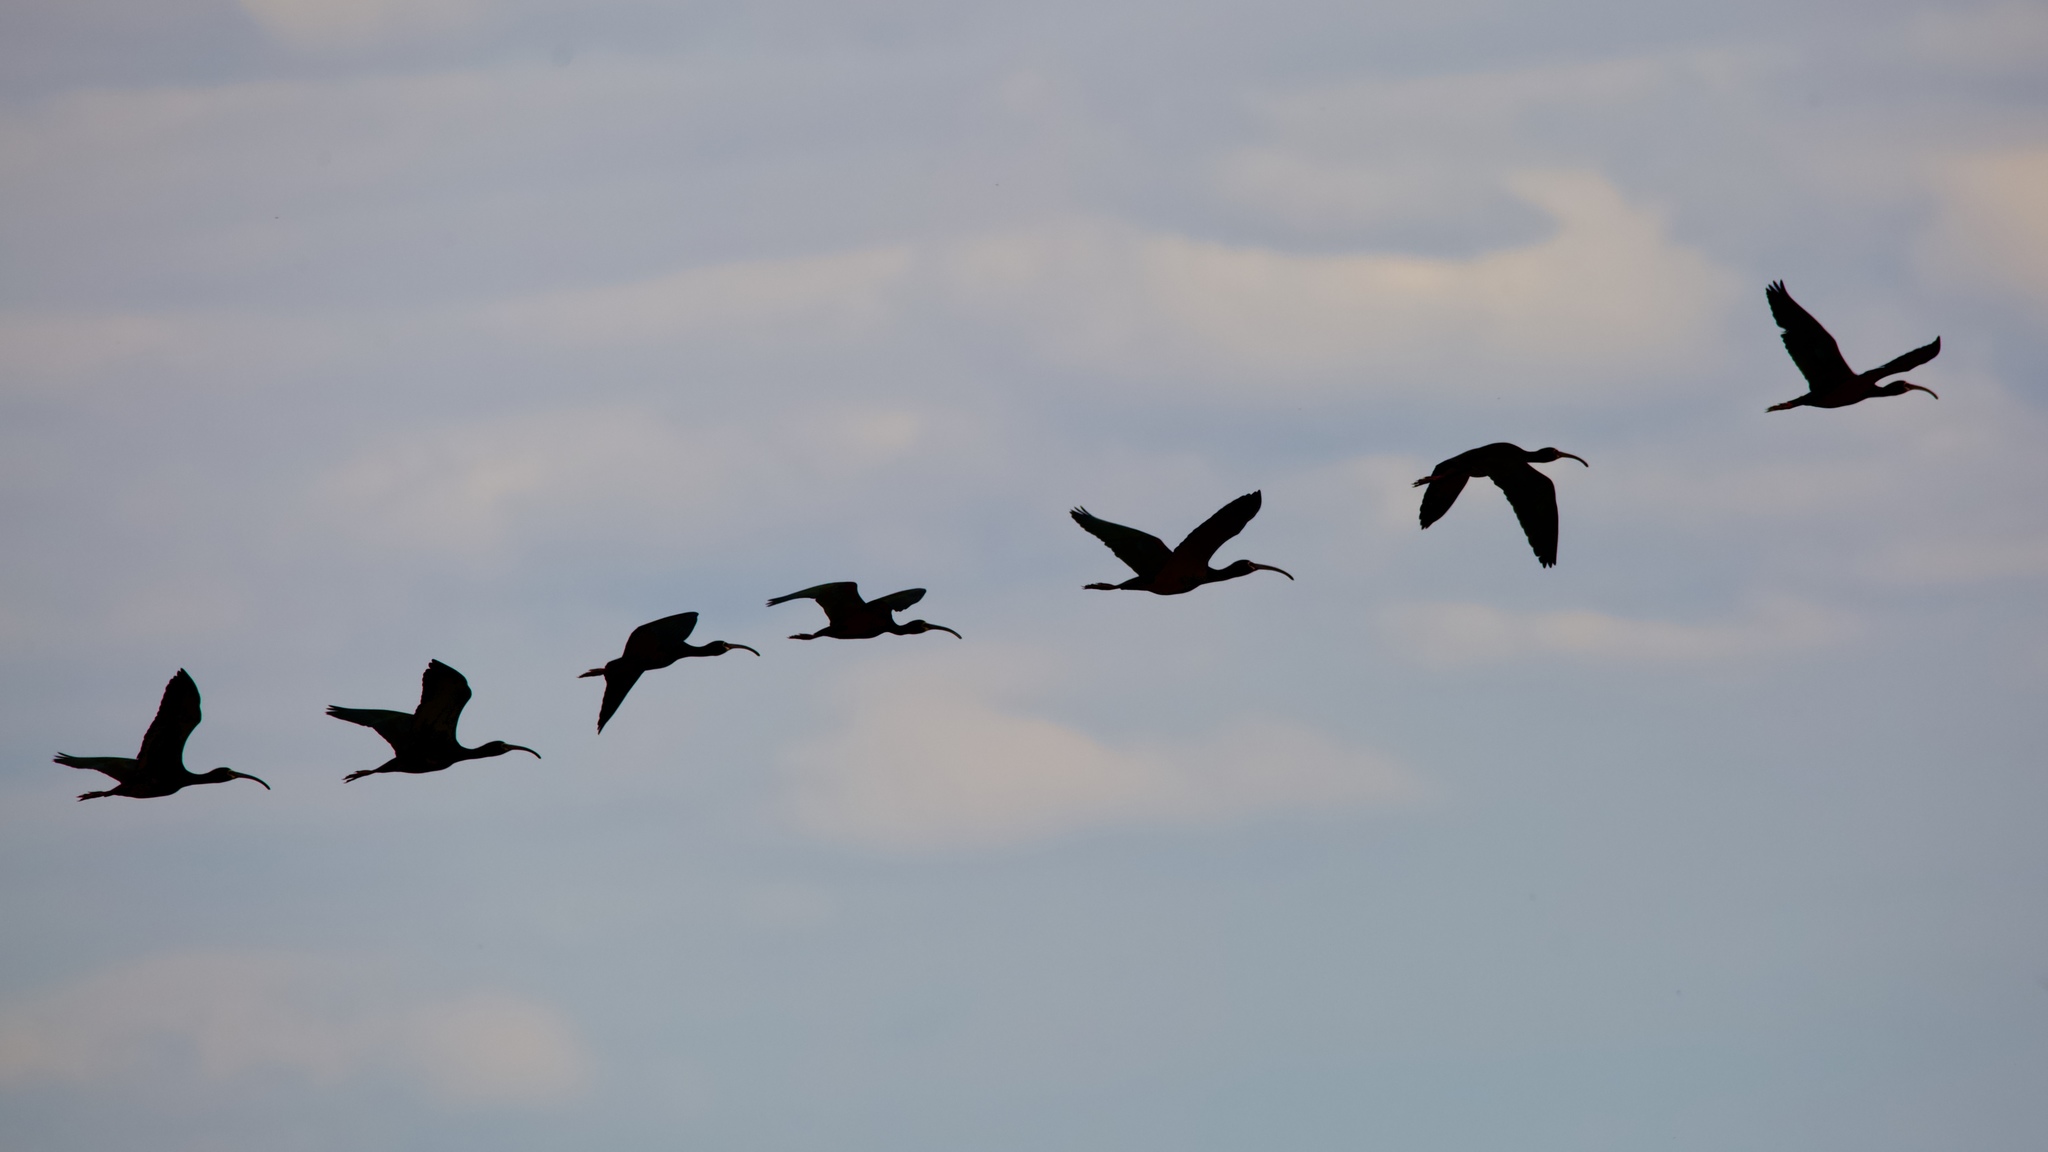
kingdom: Animalia
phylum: Chordata
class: Aves
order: Pelecaniformes
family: Threskiornithidae
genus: Plegadis
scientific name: Plegadis chihi
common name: White-faced ibis
